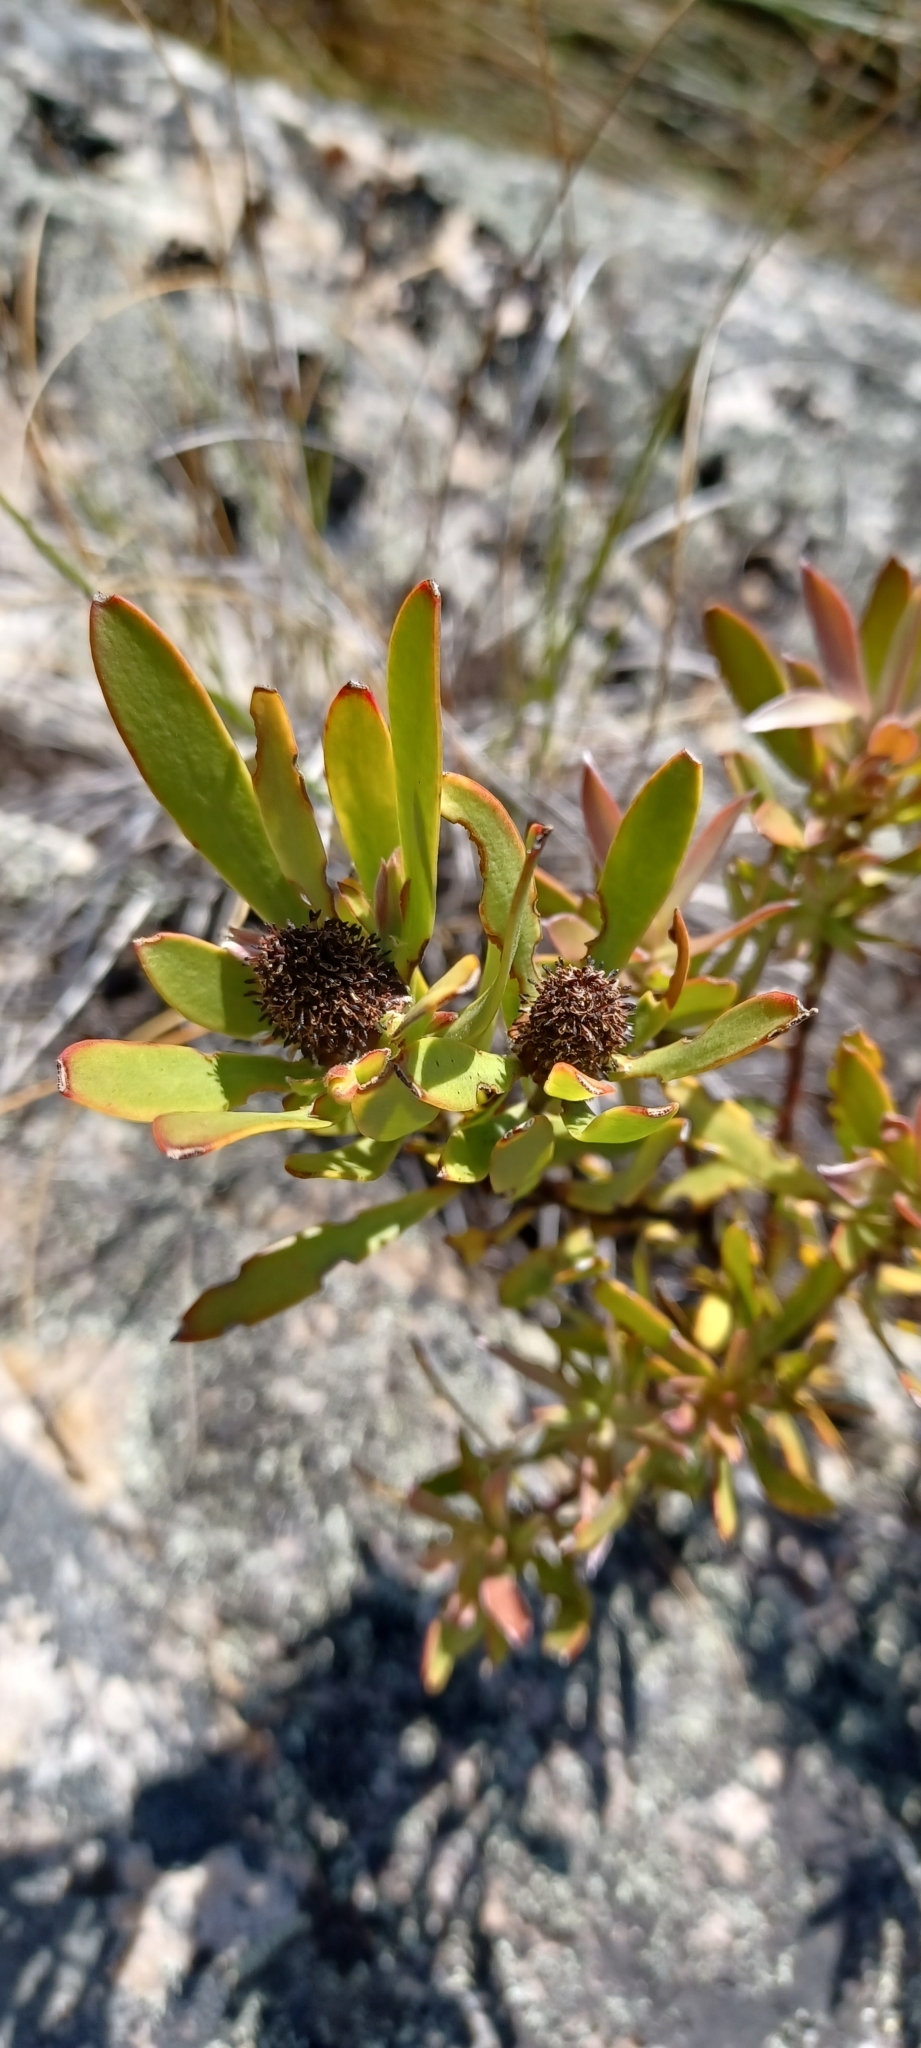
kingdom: Plantae
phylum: Tracheophyta
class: Magnoliopsida
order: Proteales
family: Proteaceae
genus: Leucadendron
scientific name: Leucadendron salignum
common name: Common sunshine conebush
